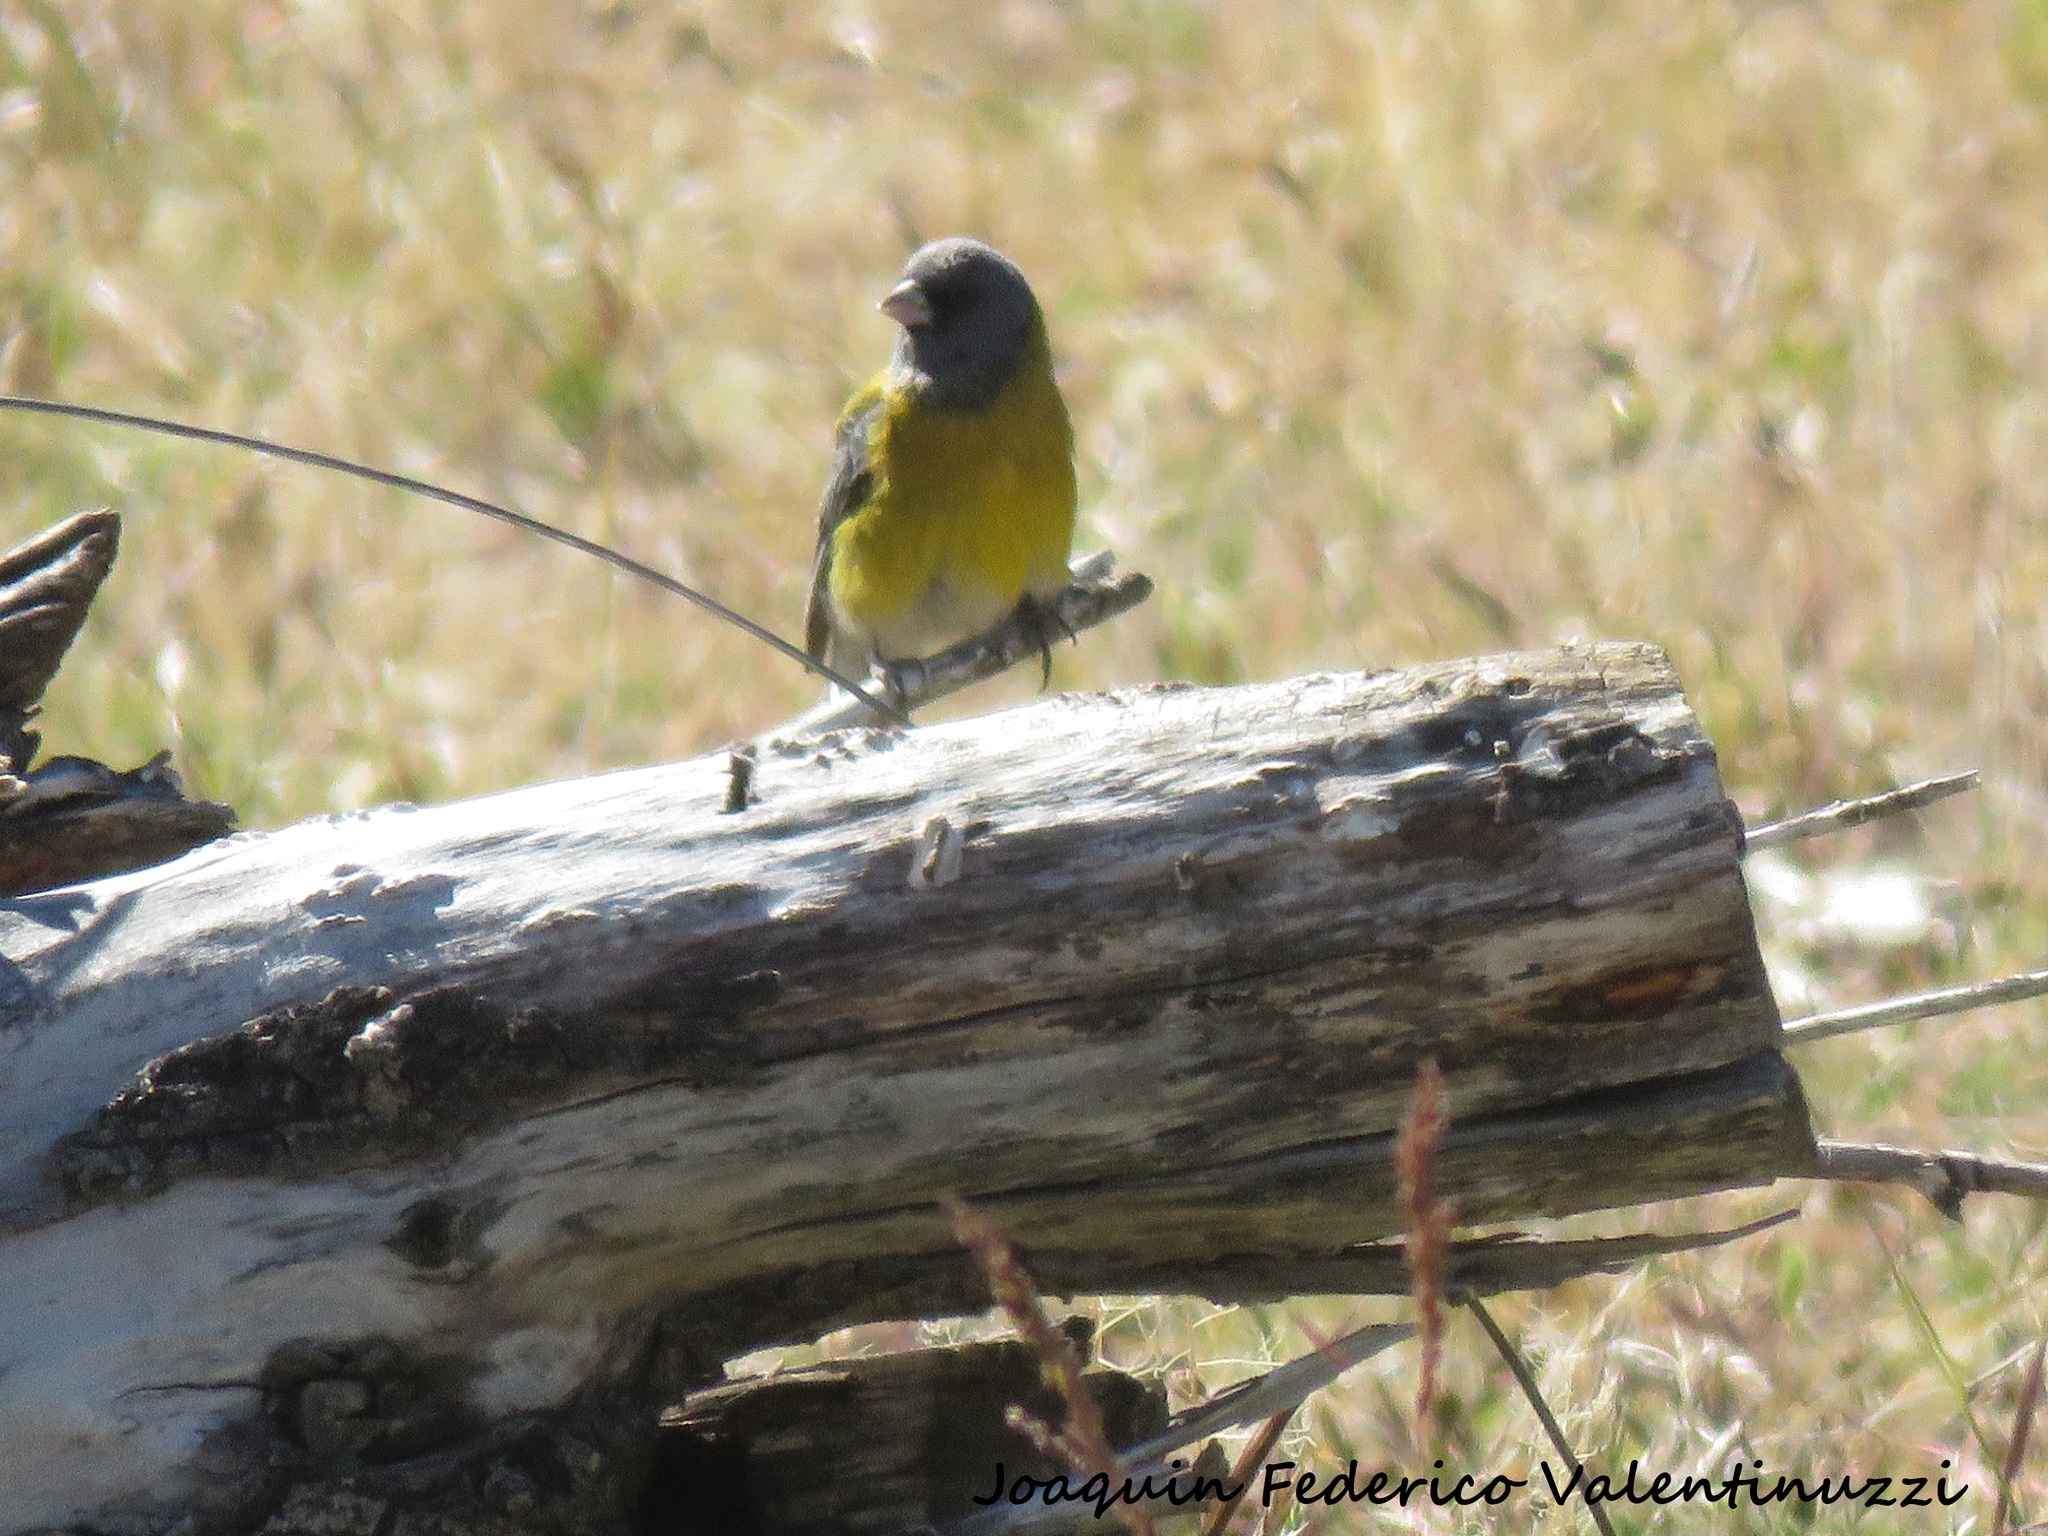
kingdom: Animalia
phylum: Chordata
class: Aves
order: Passeriformes
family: Thraupidae
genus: Phrygilus
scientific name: Phrygilus gayi
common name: Grey-hooded sierra finch
